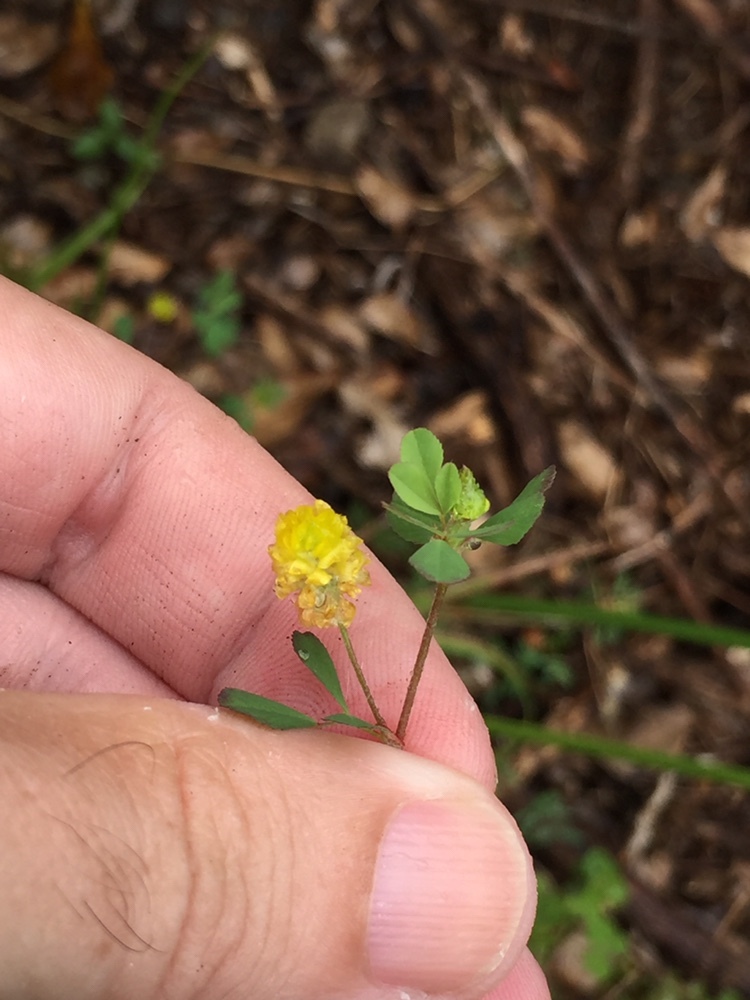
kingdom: Plantae
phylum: Tracheophyta
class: Magnoliopsida
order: Fabales
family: Fabaceae
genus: Trifolium
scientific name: Trifolium campestre
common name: Field clover
